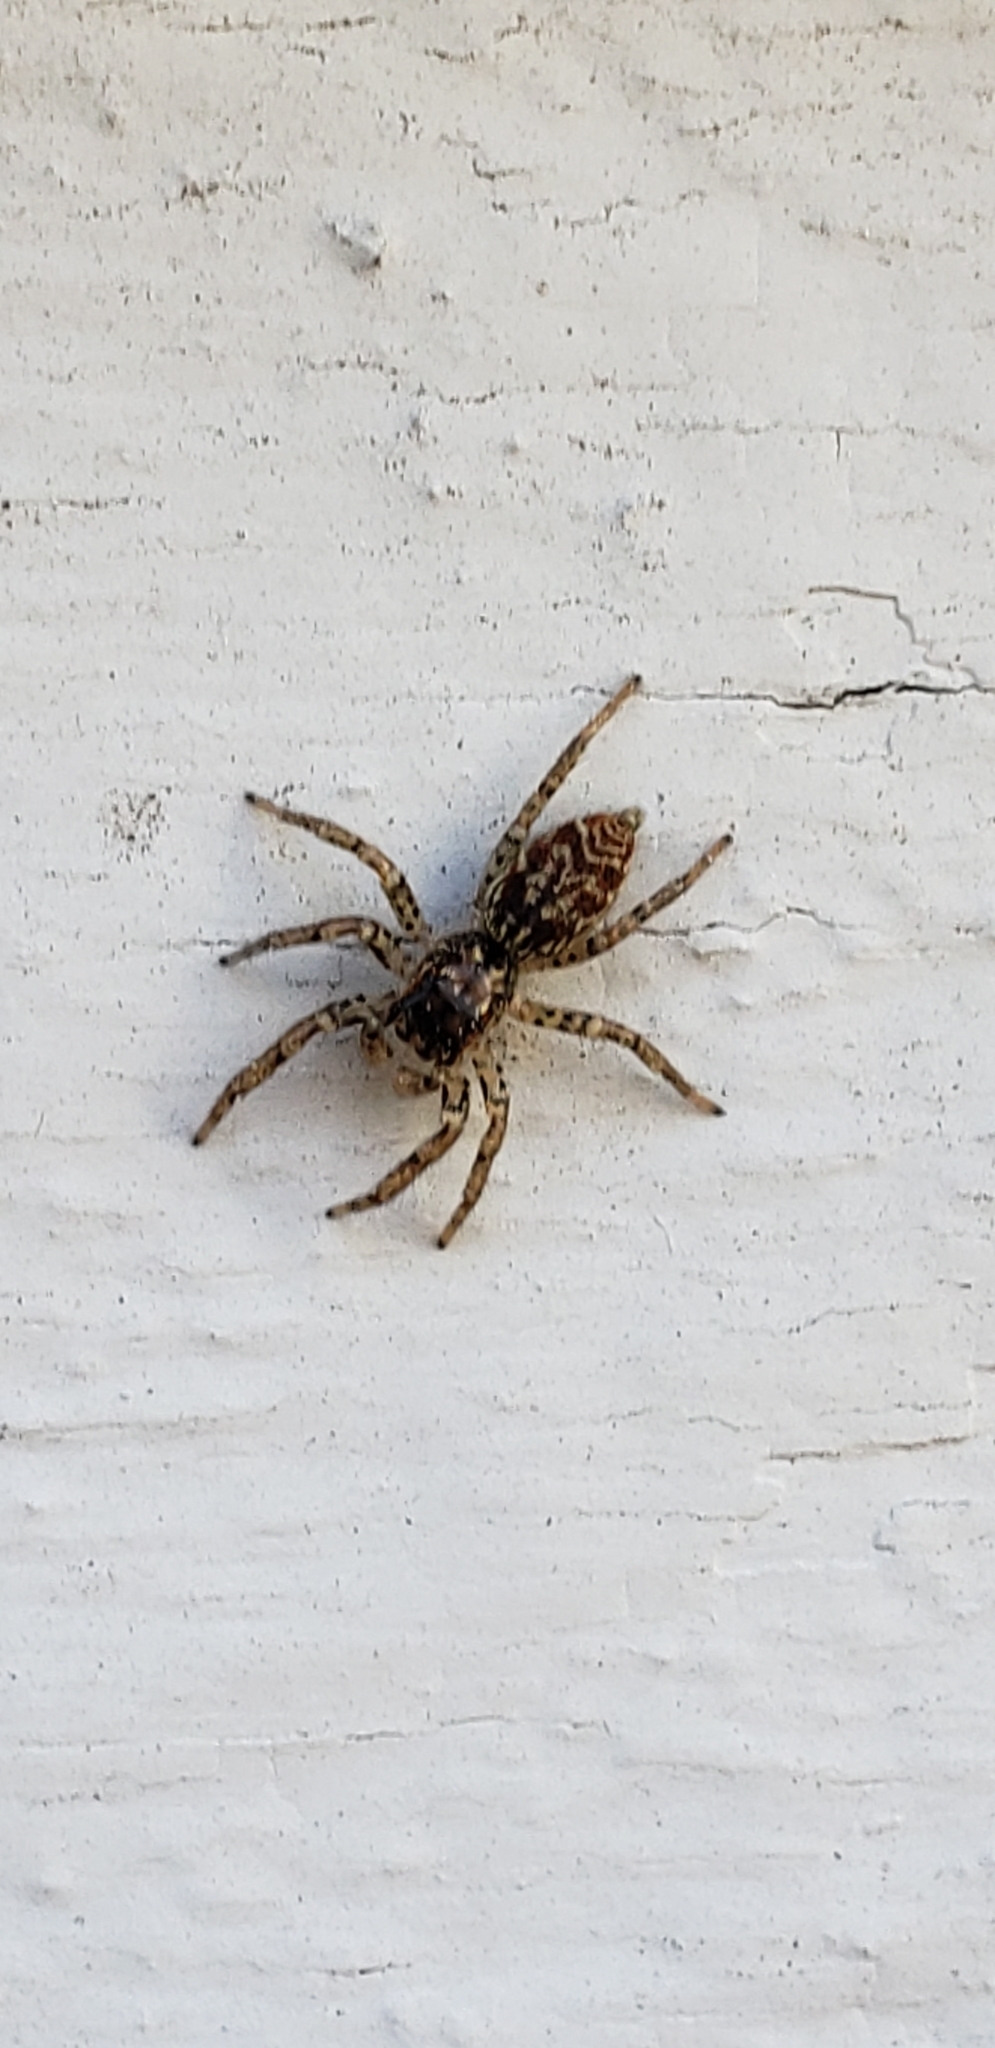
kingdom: Animalia
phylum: Arthropoda
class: Arachnida
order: Araneae
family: Salticidae
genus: Maevia
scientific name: Maevia inclemens
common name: Dimorphic jumper
